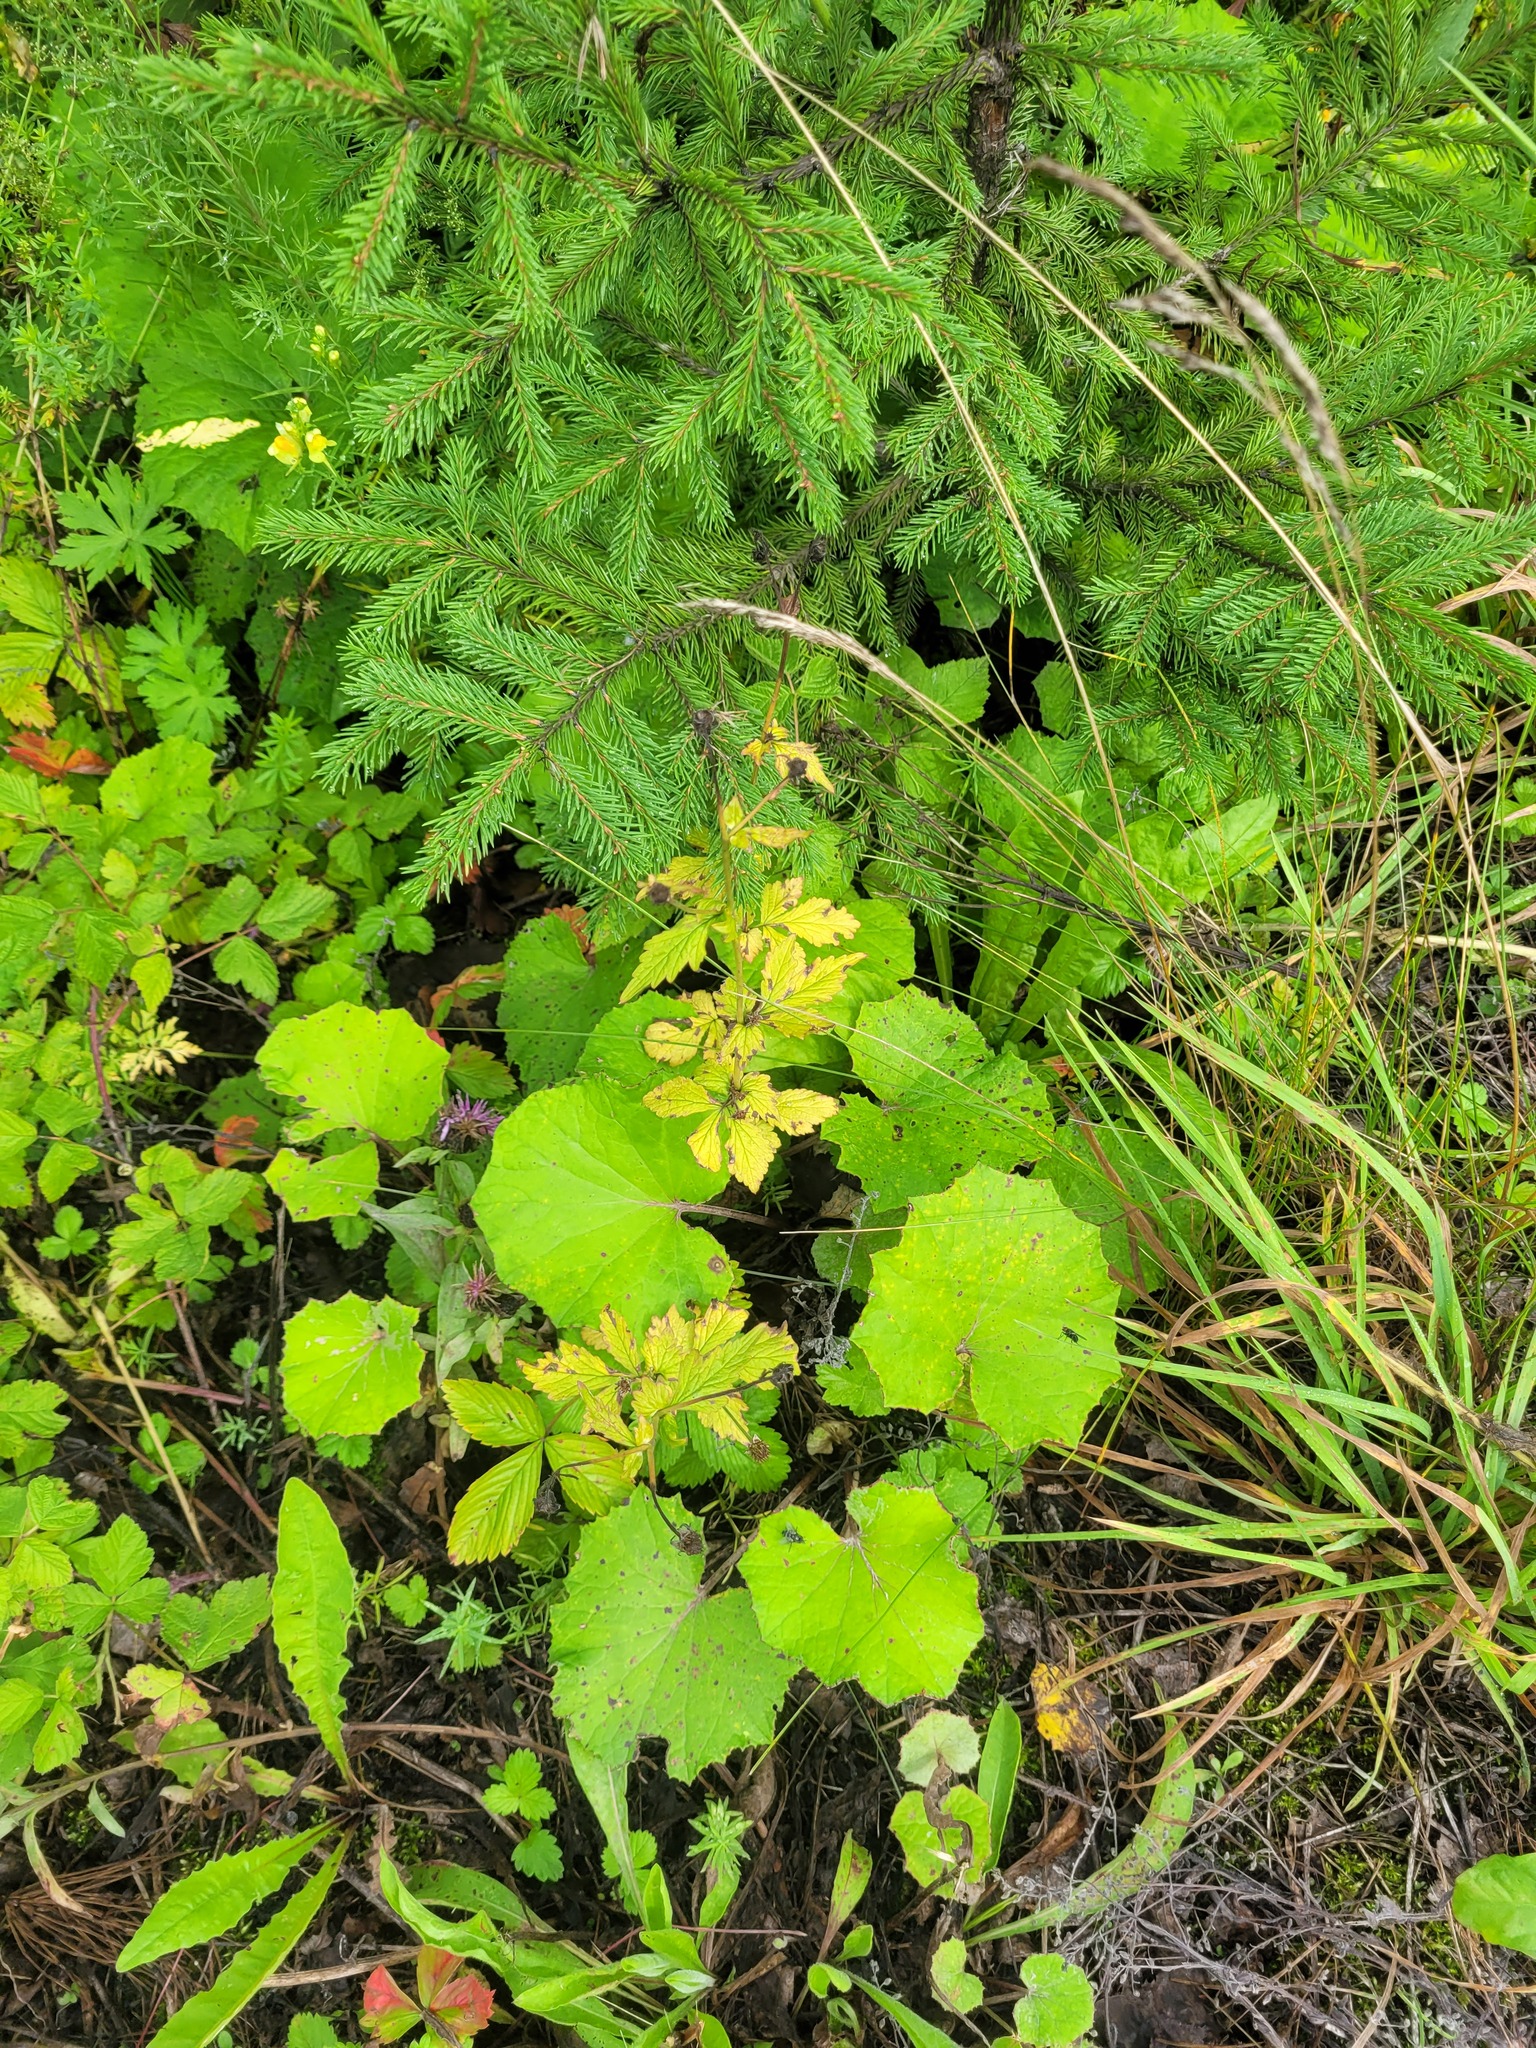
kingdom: Plantae
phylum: Tracheophyta
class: Magnoliopsida
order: Rosales
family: Rosaceae
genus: Geum
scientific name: Geum urbanum
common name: Wood avens
